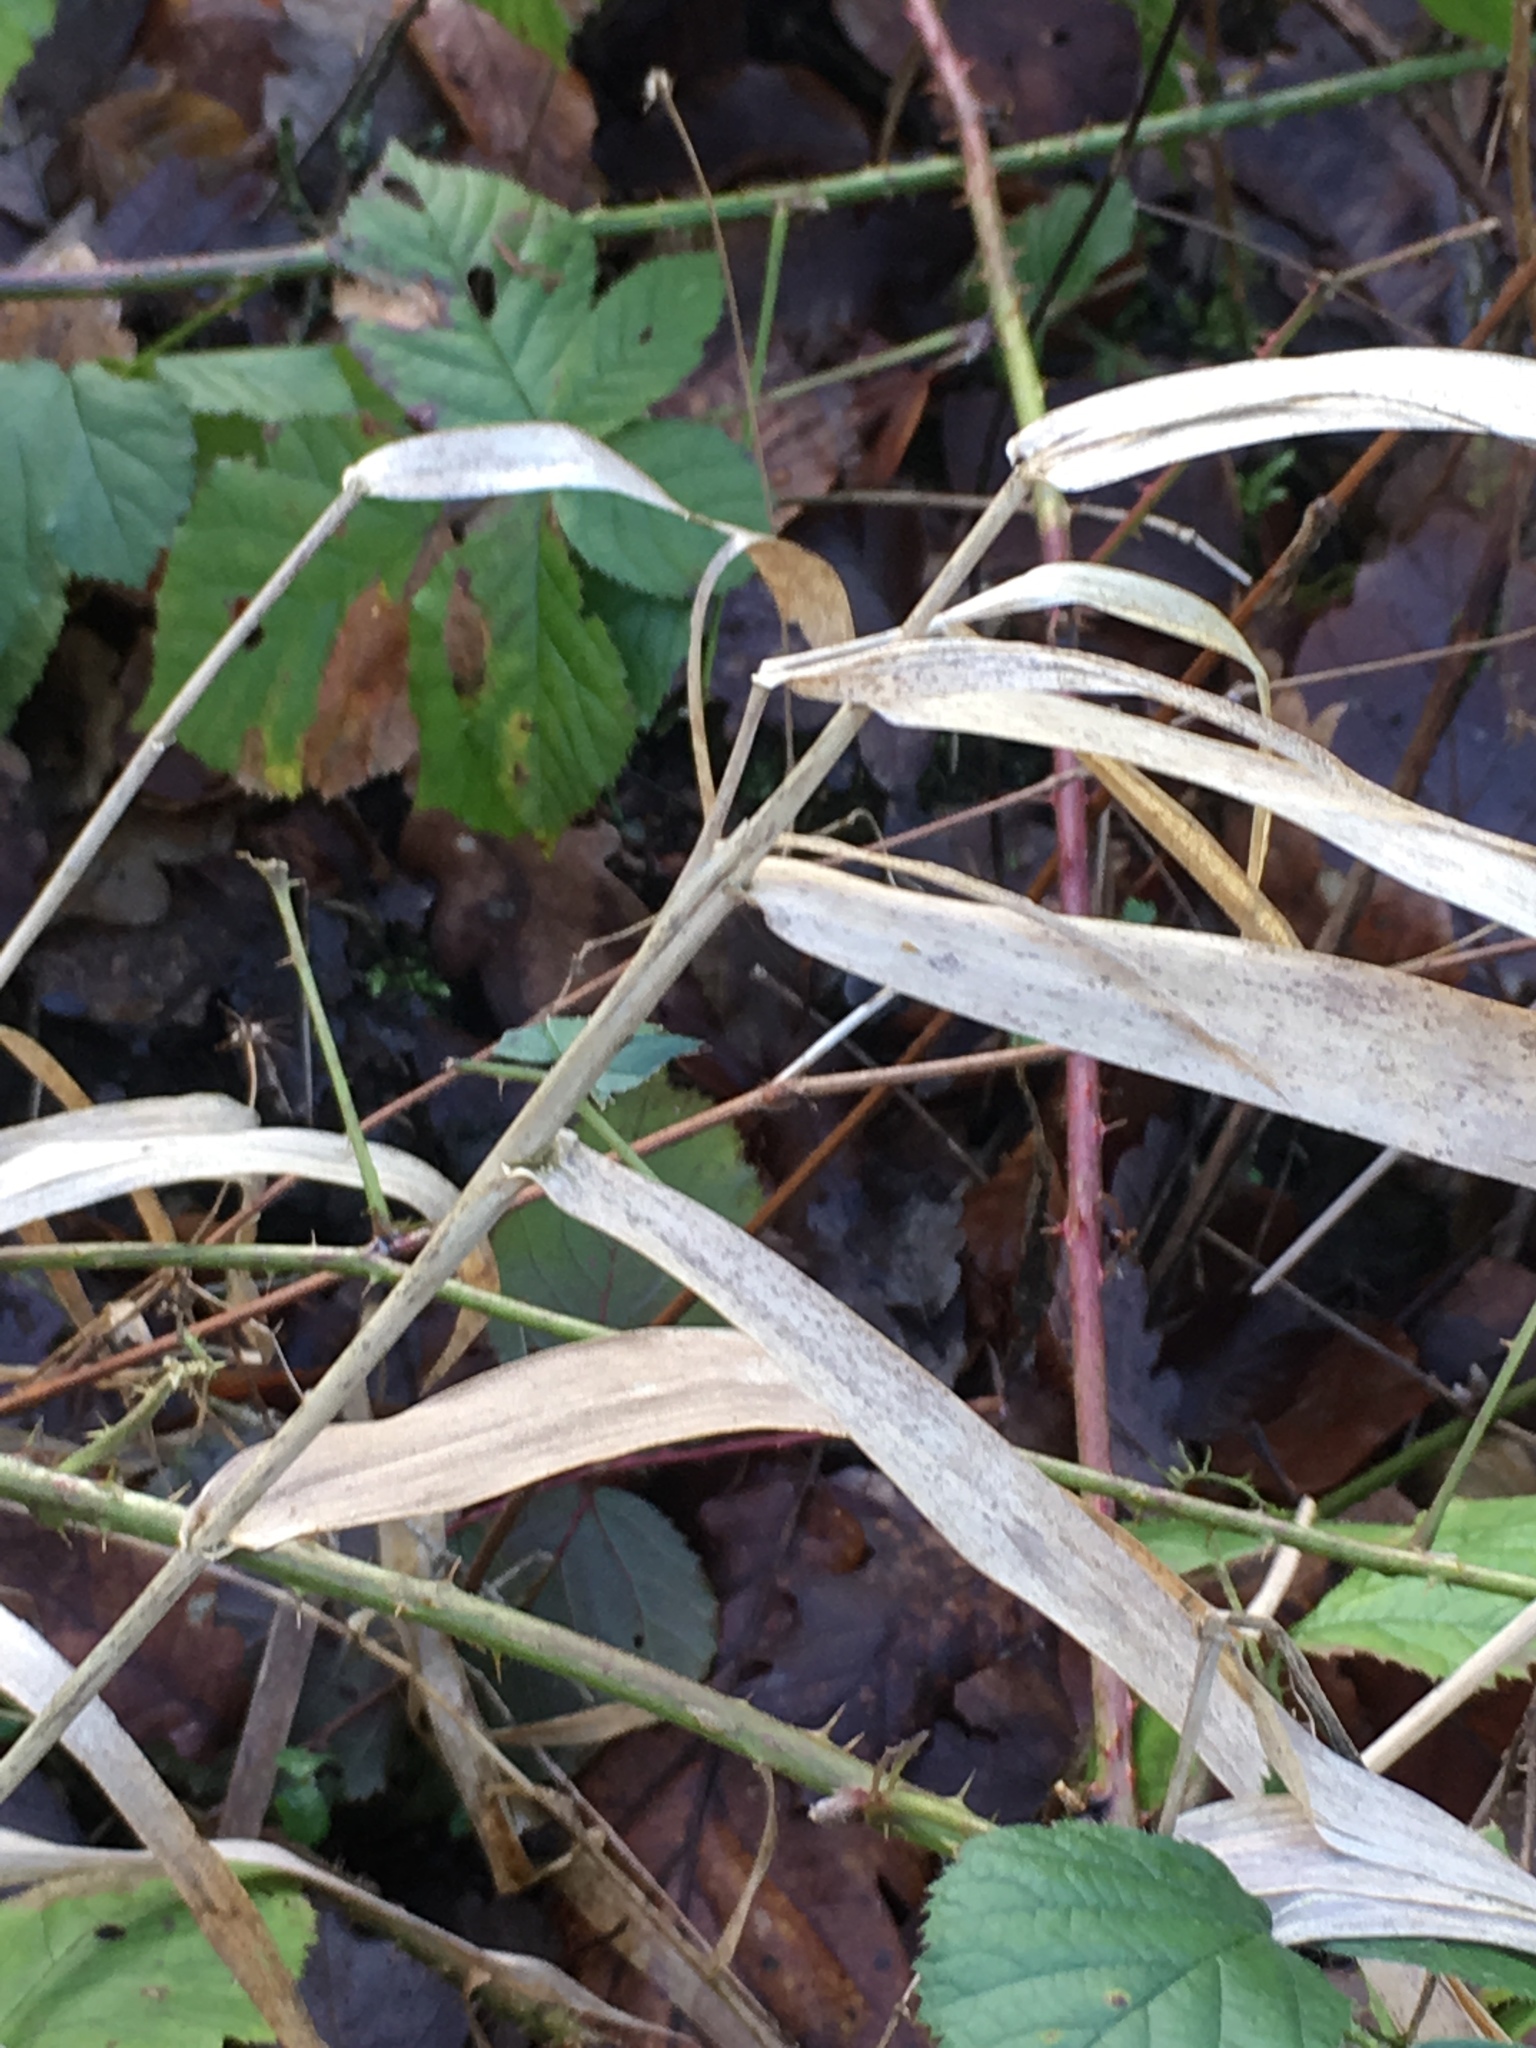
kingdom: Plantae
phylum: Tracheophyta
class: Liliopsida
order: Poales
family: Poaceae
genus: Phalaris
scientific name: Phalaris arundinacea
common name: Reed canary-grass
